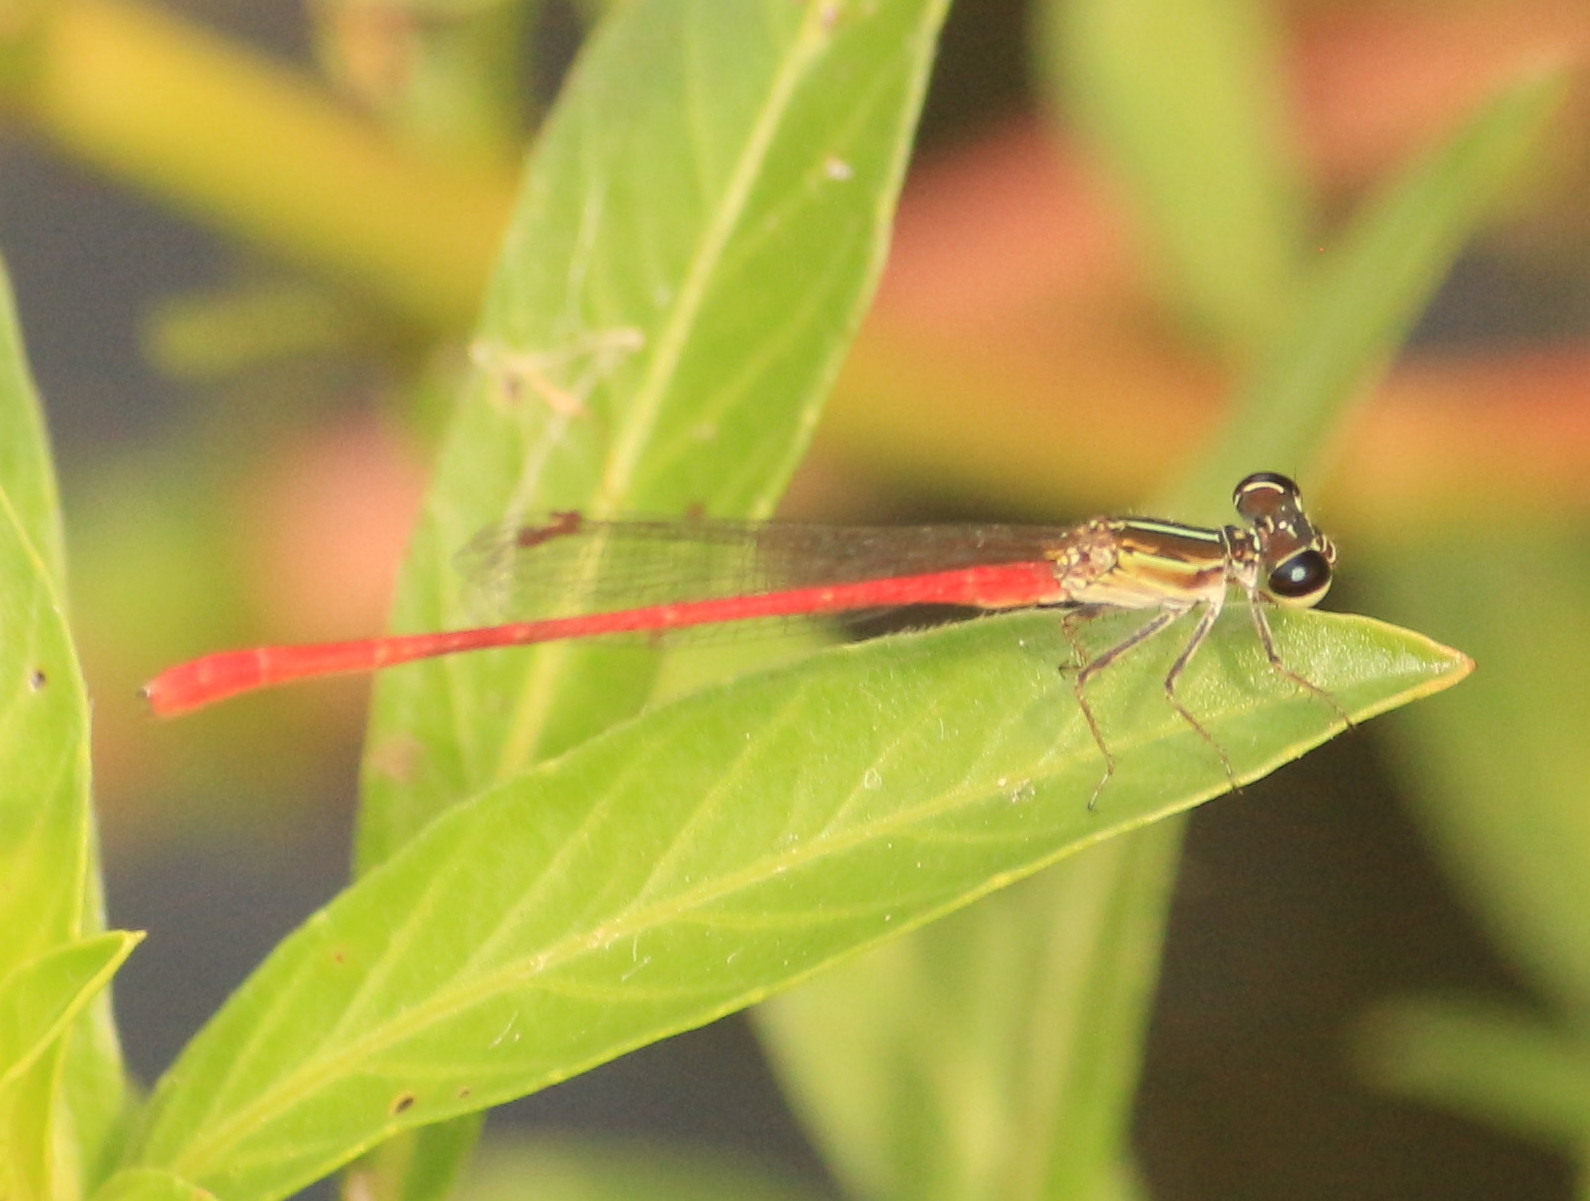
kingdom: Animalia
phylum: Arthropoda
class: Insecta
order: Odonata
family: Coenagrionidae
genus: Telebasis
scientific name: Telebasis willinki
